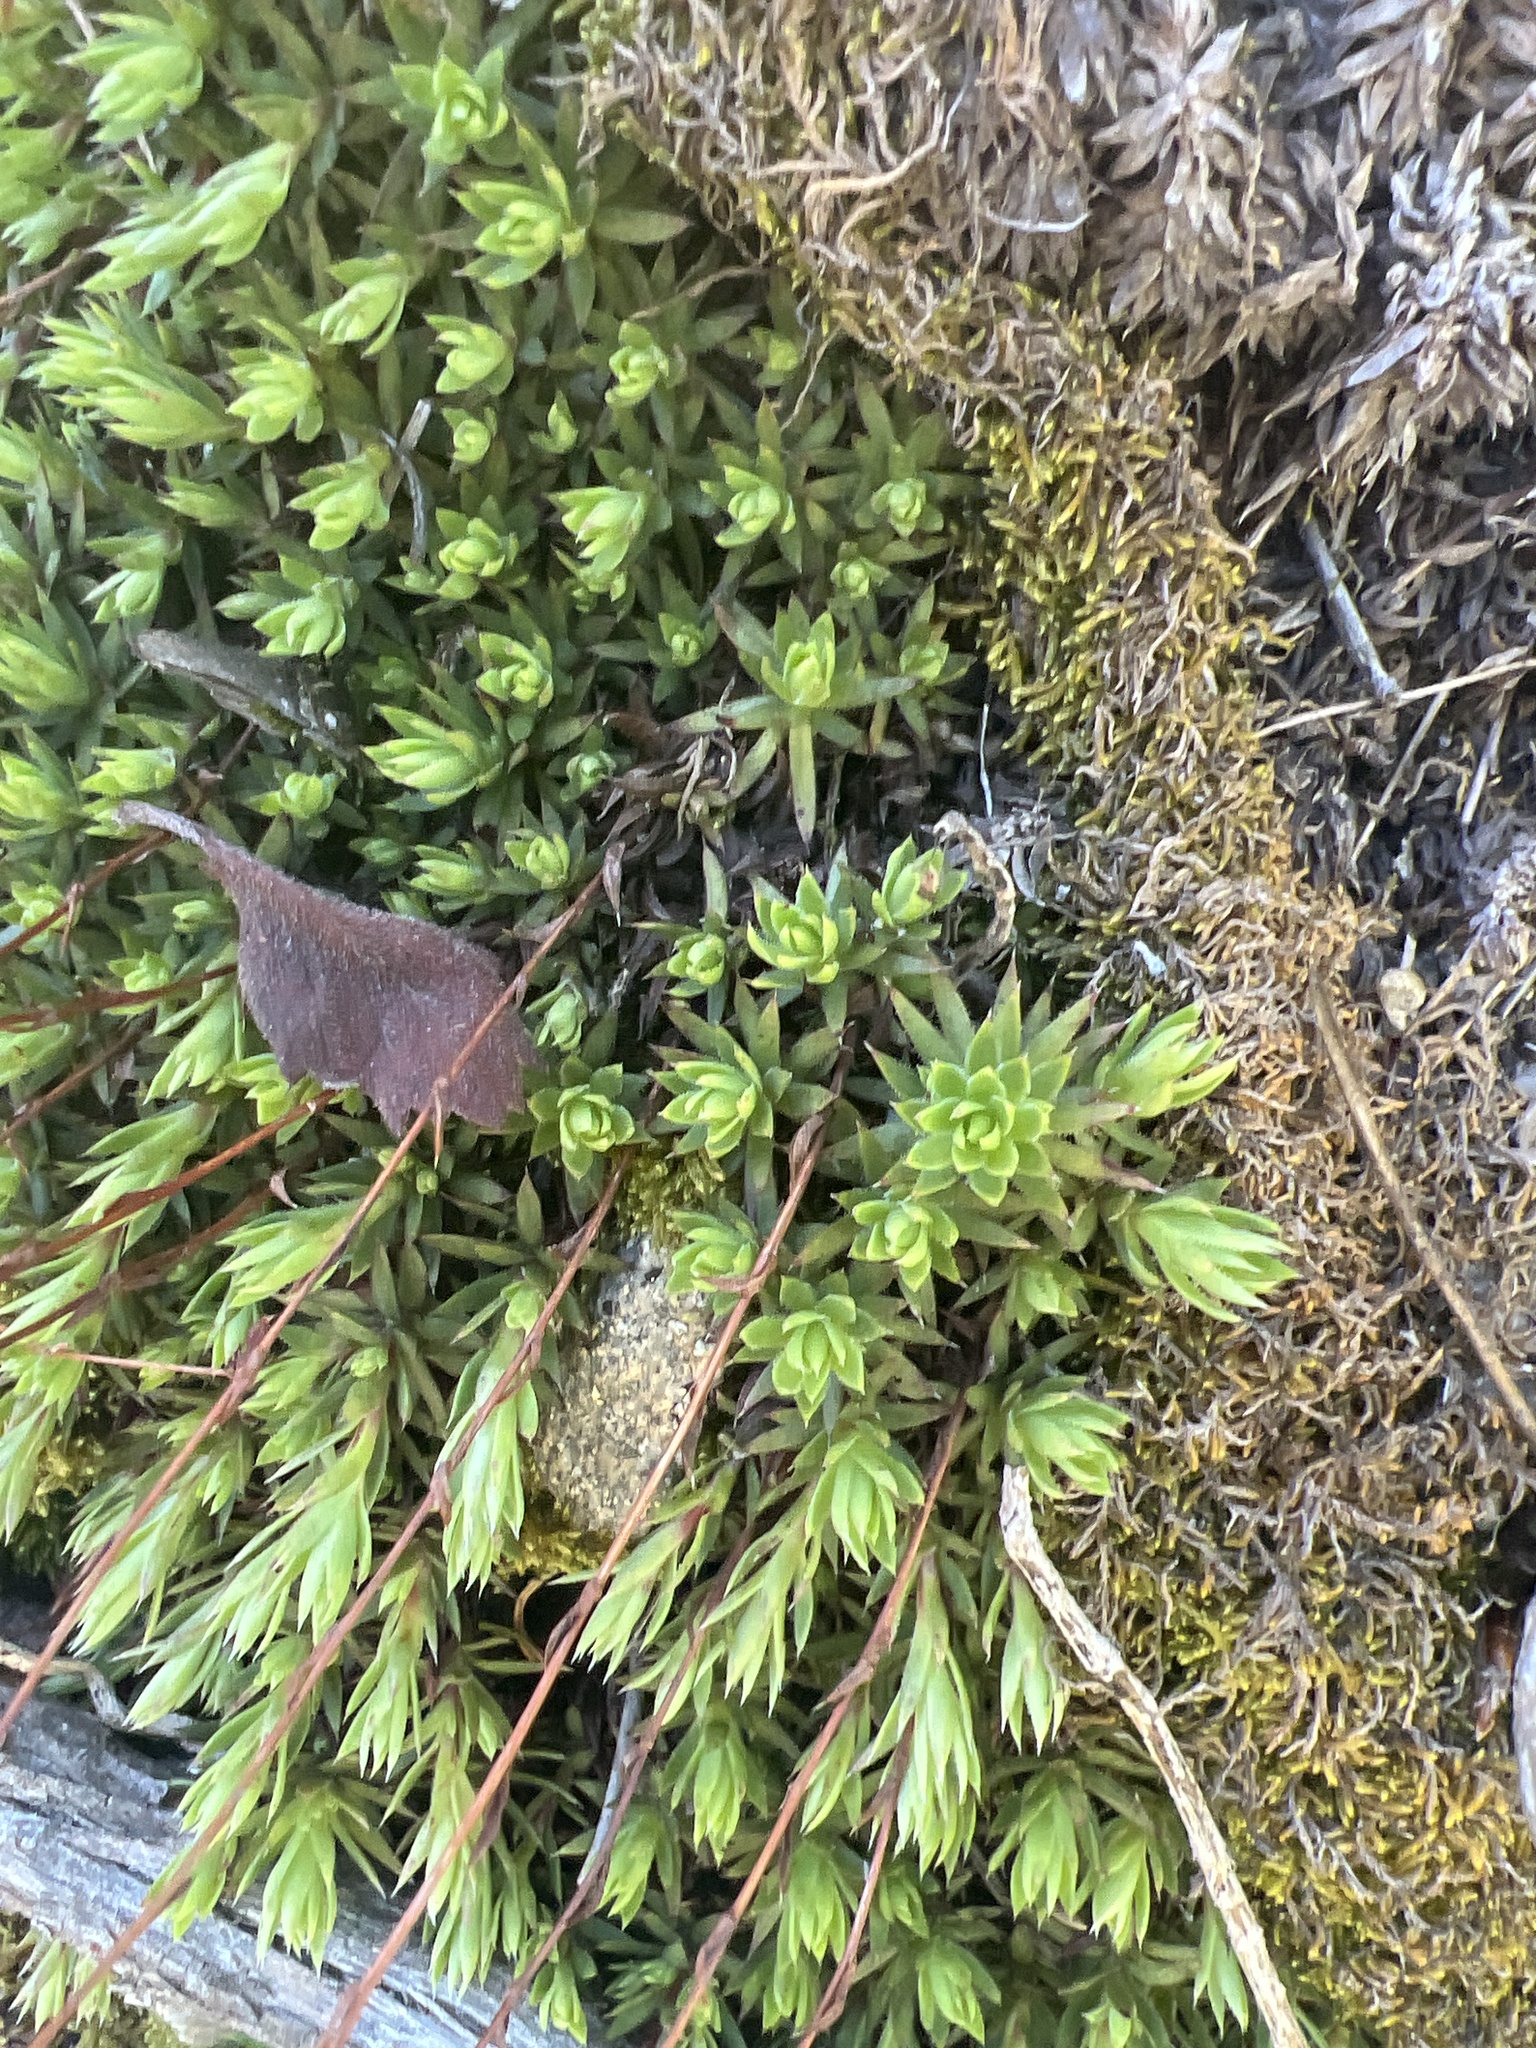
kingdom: Plantae
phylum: Tracheophyta
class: Magnoliopsida
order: Saxifragales
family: Saxifragaceae
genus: Saxifraga
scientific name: Saxifraga bronchialis
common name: Matted saxifrage
